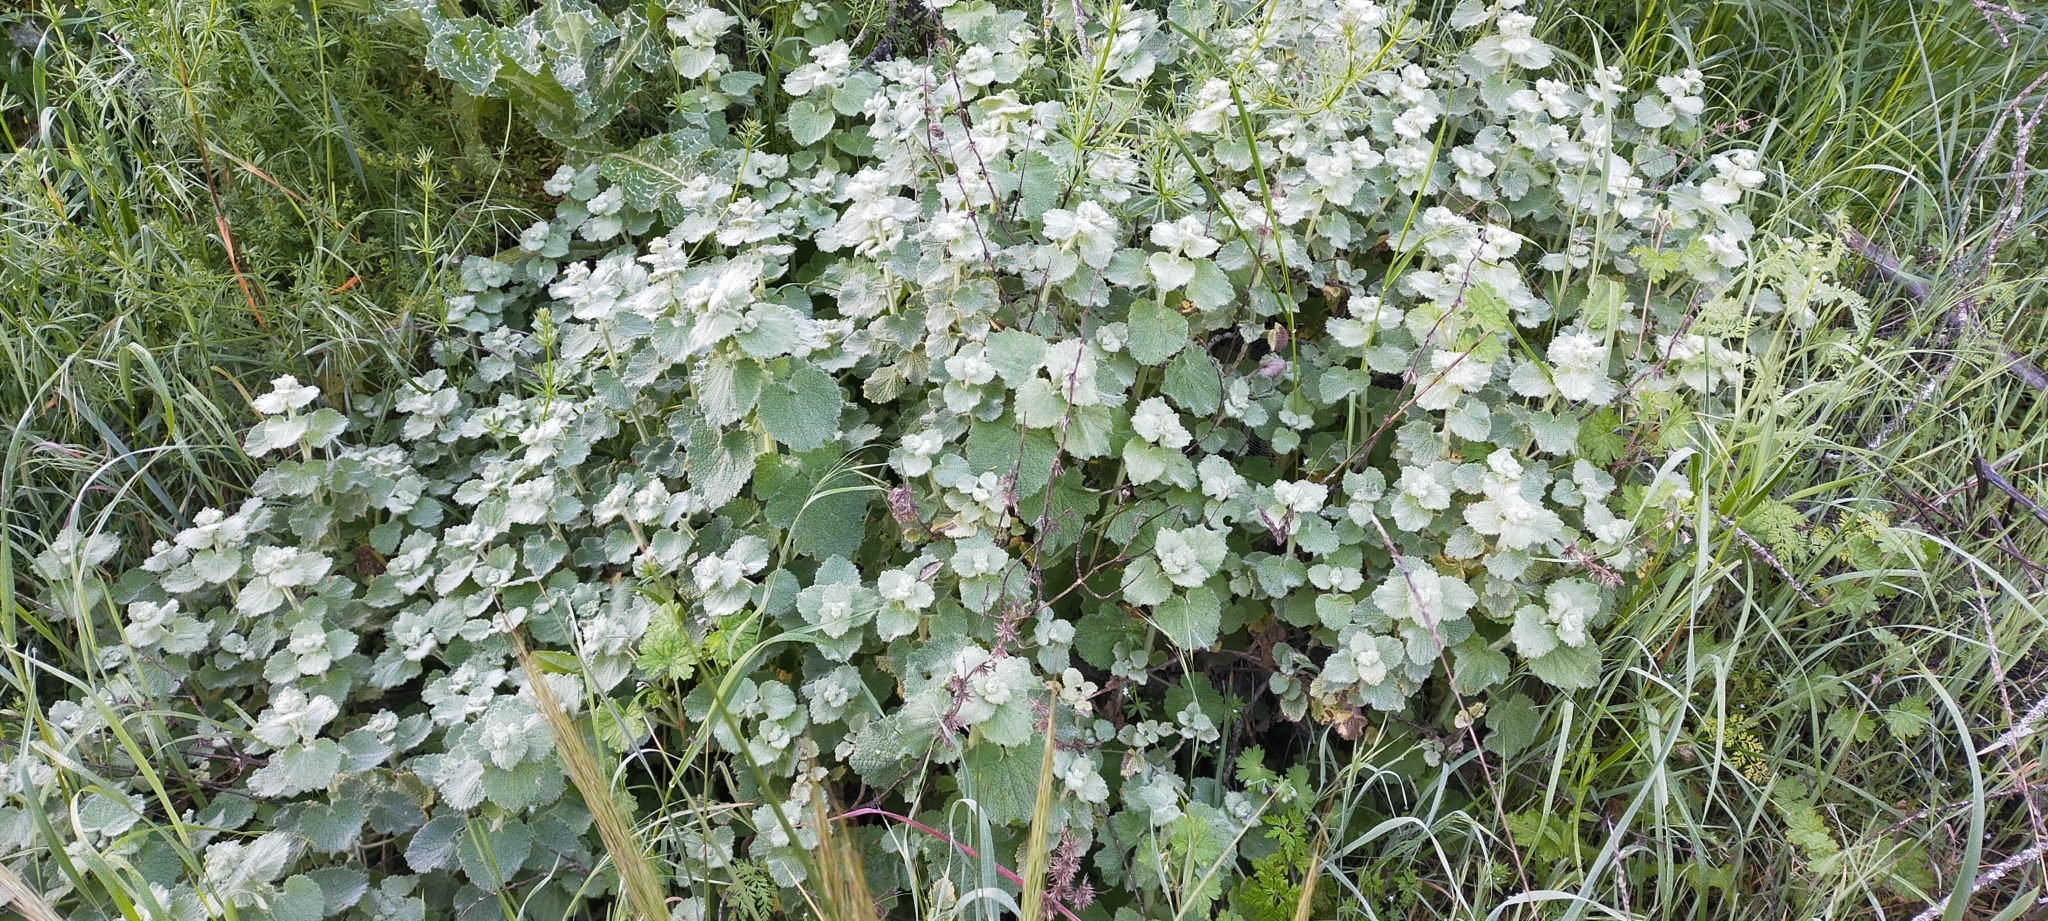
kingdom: Plantae
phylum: Tracheophyta
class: Magnoliopsida
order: Lamiales
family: Lamiaceae
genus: Pseudodictamnus
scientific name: Pseudodictamnus hirsutus
